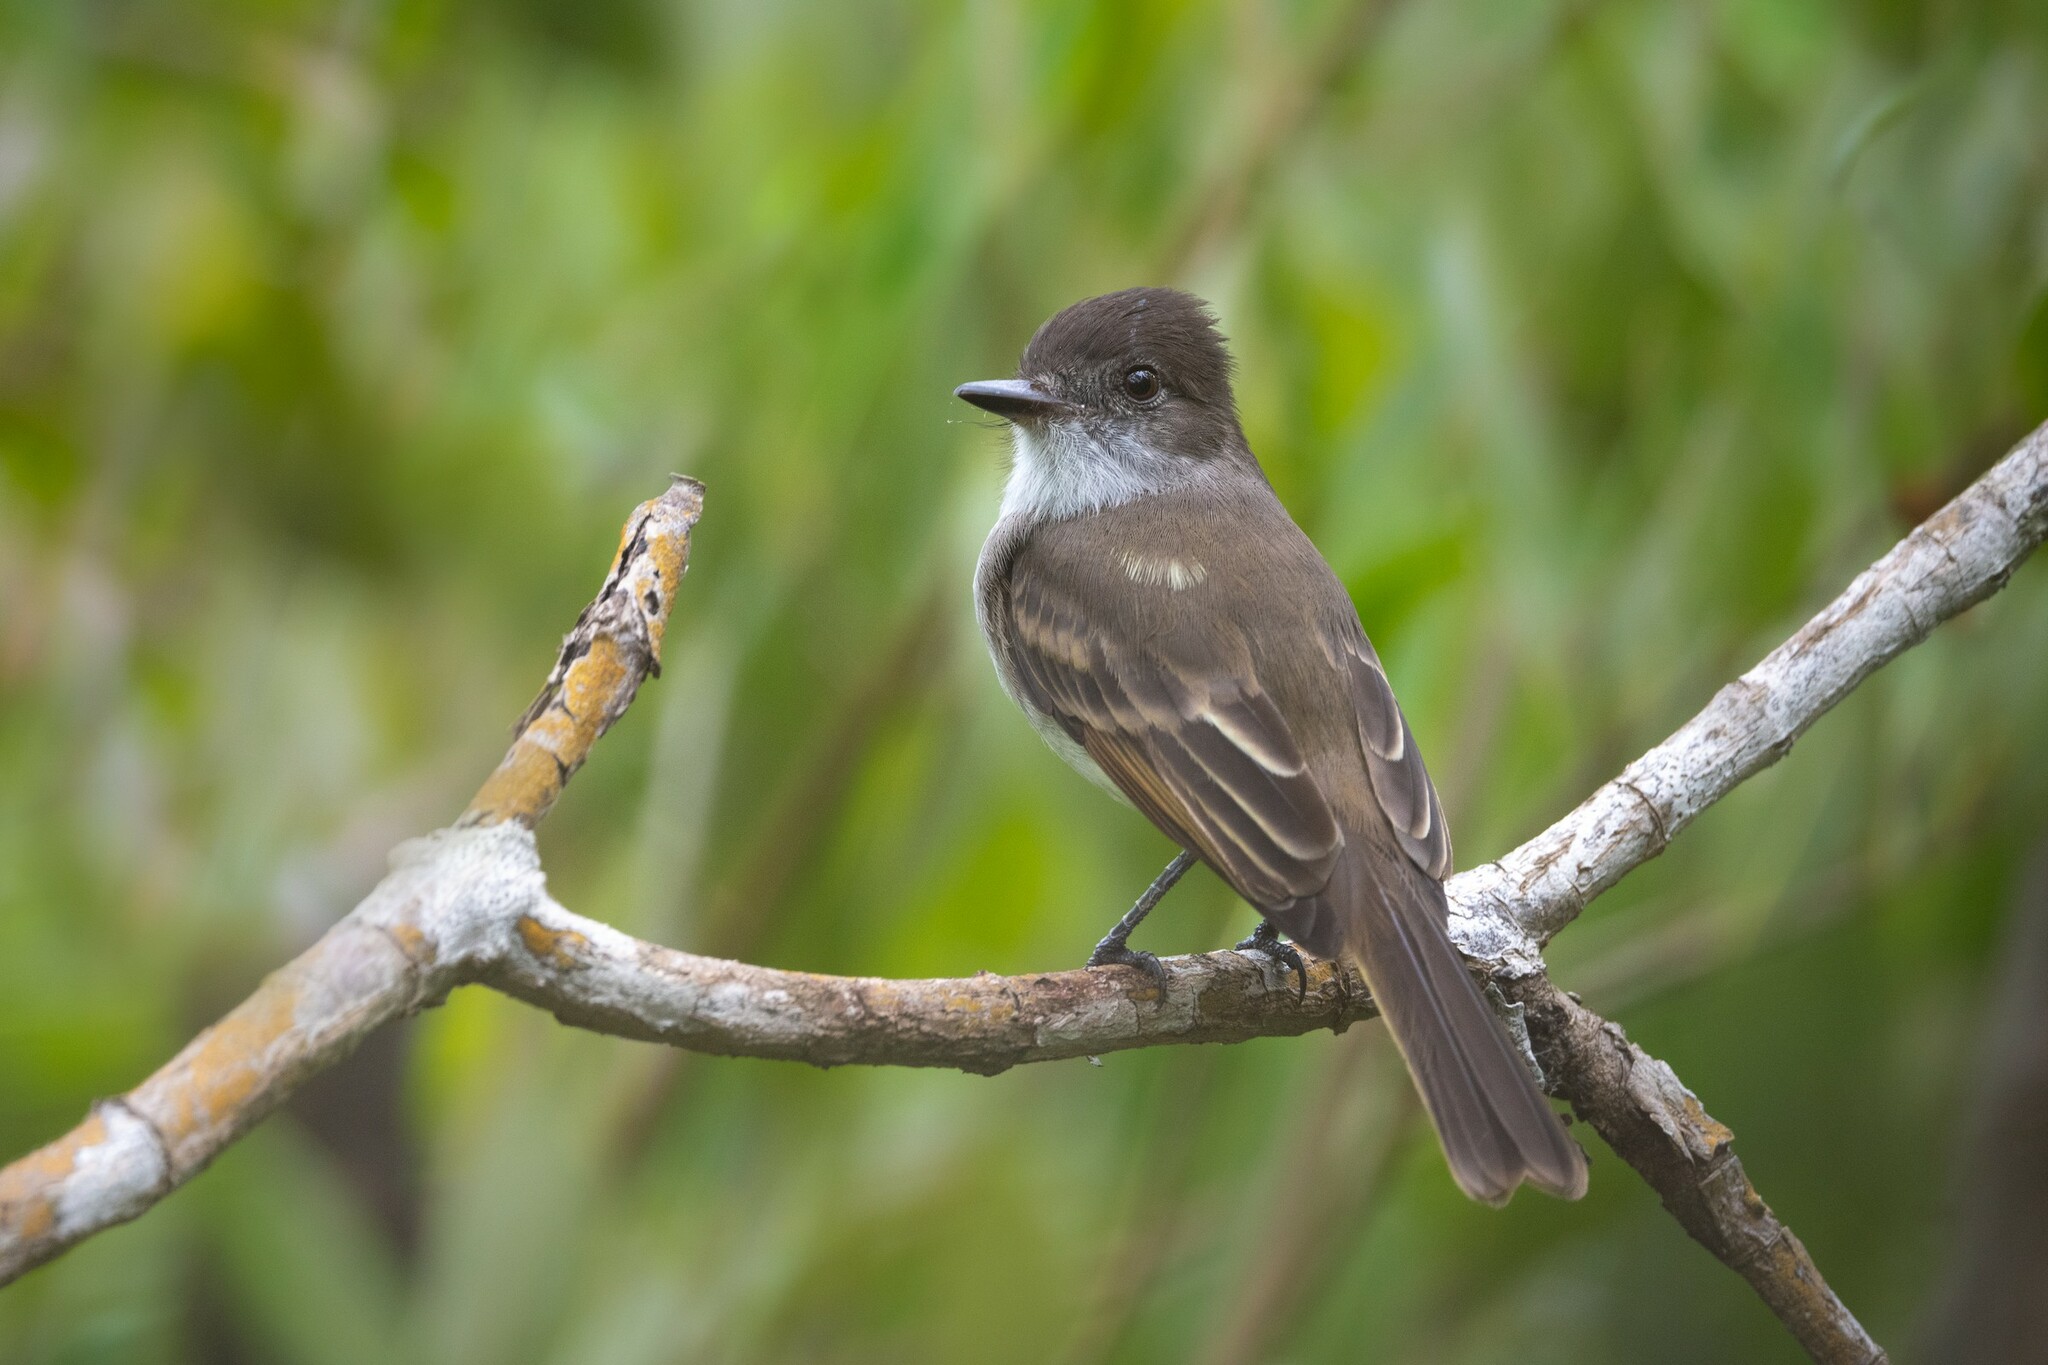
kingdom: Animalia
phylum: Chordata
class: Aves
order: Passeriformes
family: Tyrannidae
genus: Myiarchus
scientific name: Myiarchus antillarum
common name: Puerto rican flycatcher
